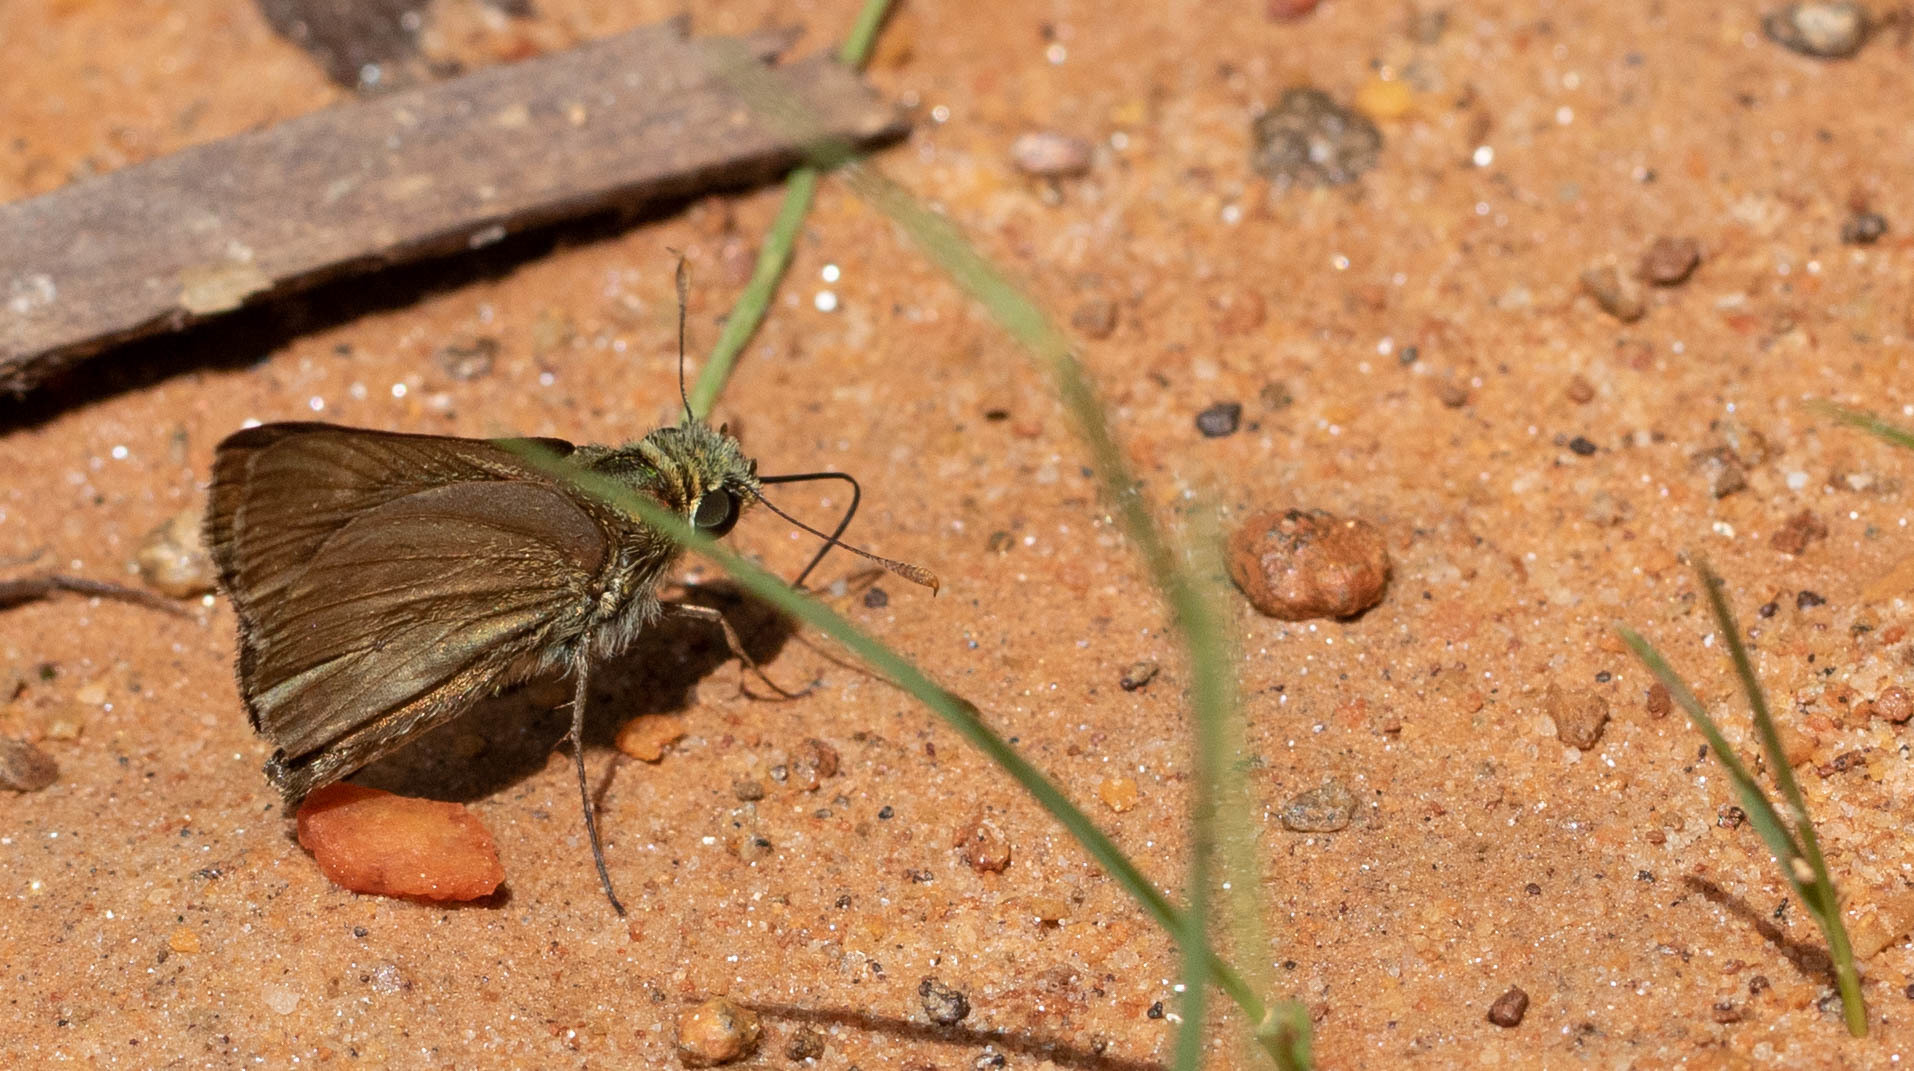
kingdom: Animalia
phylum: Arthropoda
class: Insecta
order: Lepidoptera
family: Hesperiidae
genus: Euphyes
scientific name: Euphyes vestris
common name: Dun skipper
